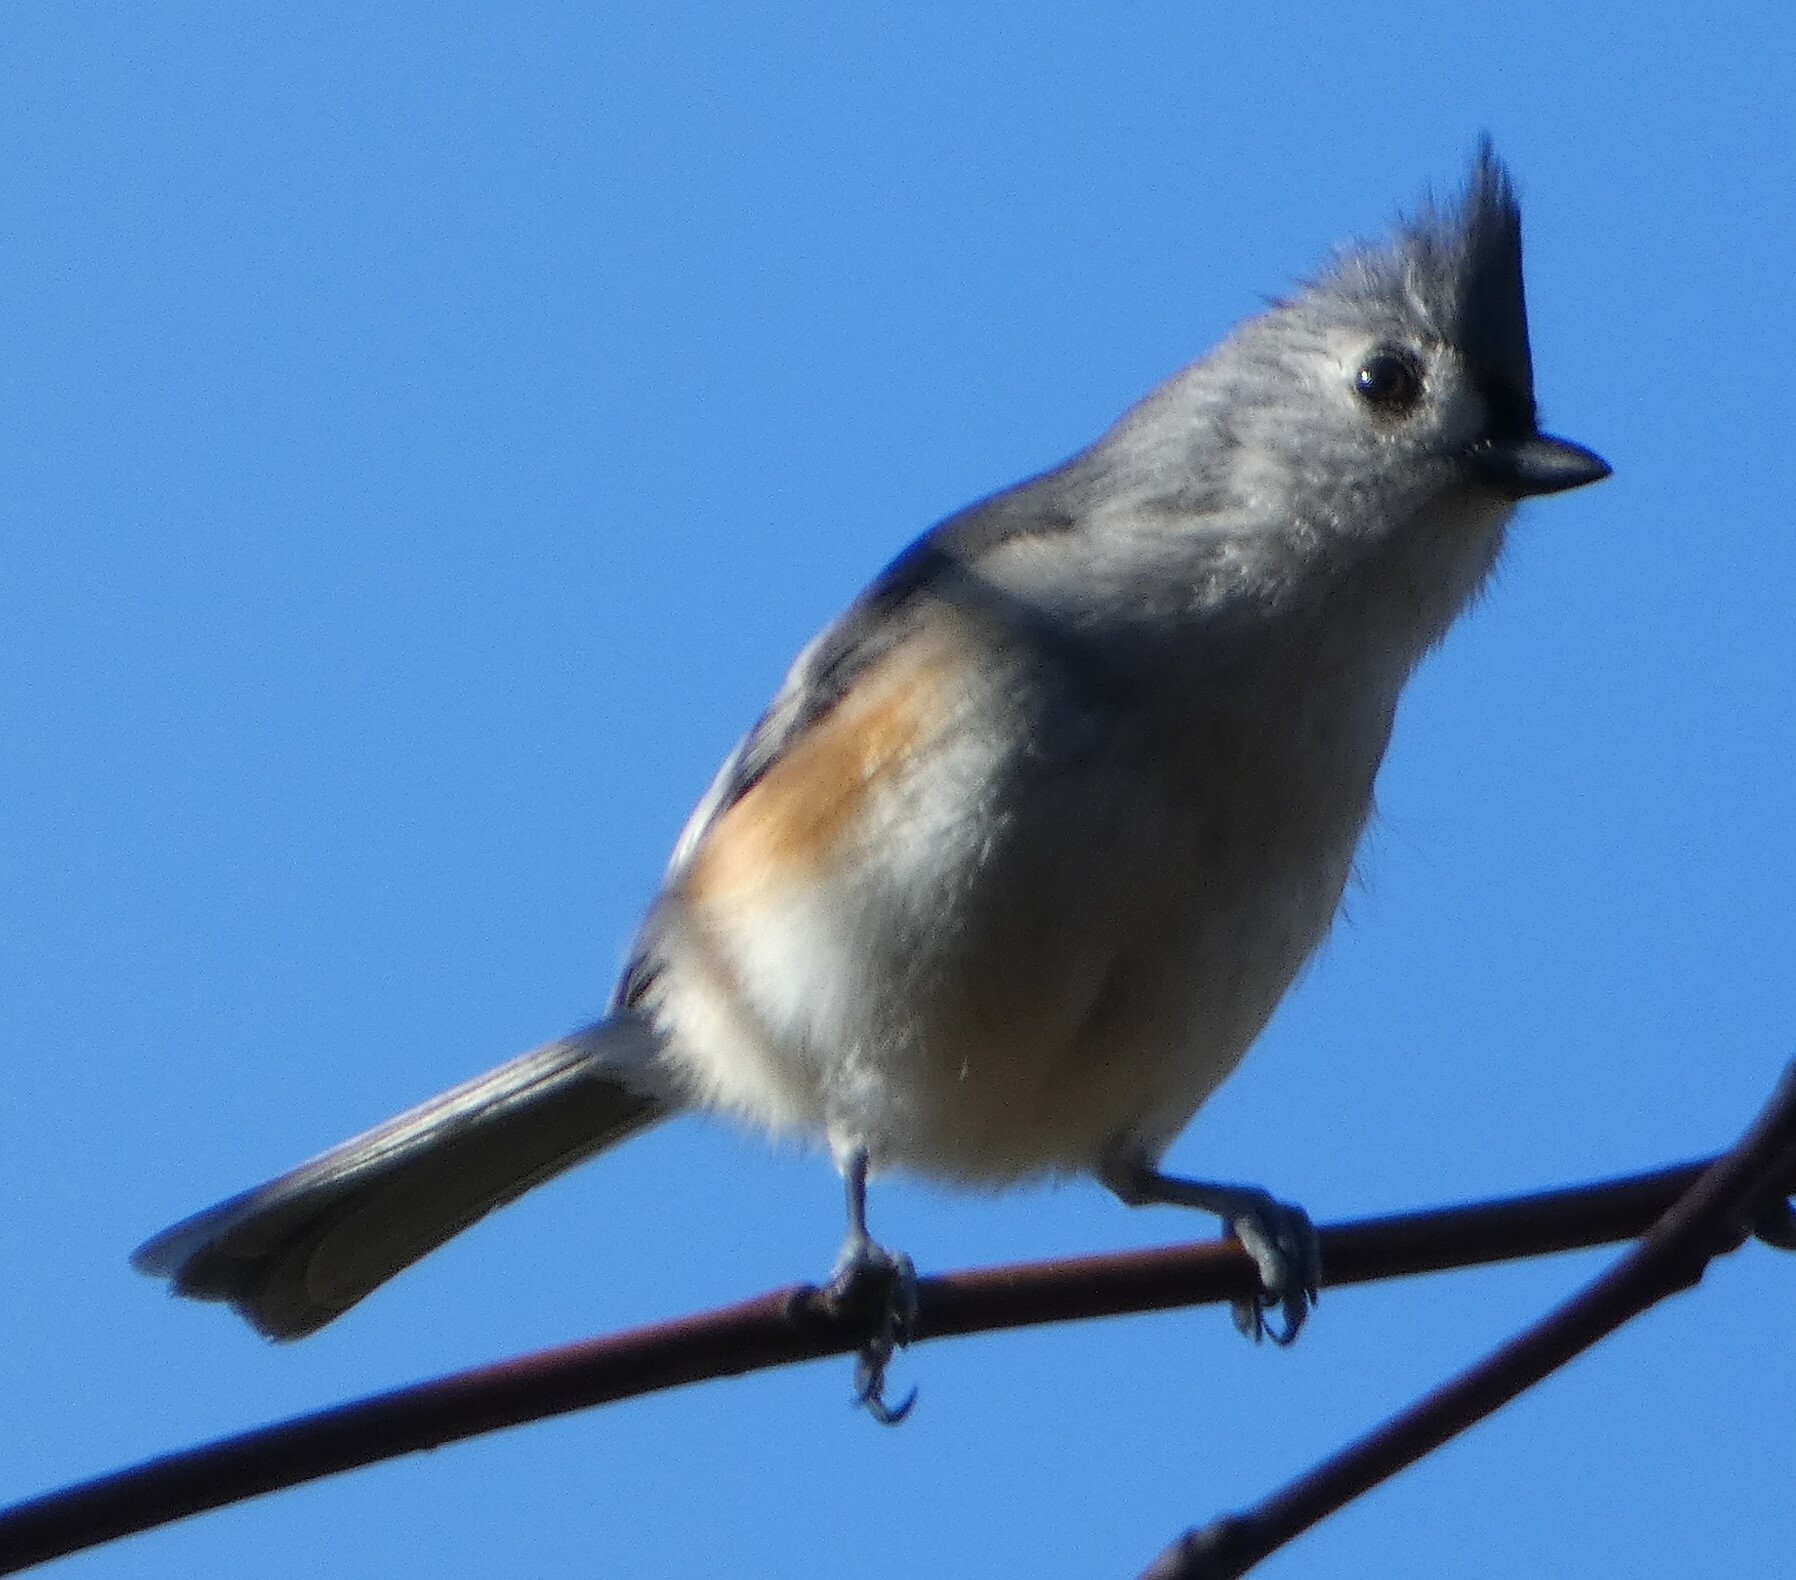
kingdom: Animalia
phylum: Chordata
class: Aves
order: Passeriformes
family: Paridae
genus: Baeolophus
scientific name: Baeolophus bicolor
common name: Tufted titmouse
